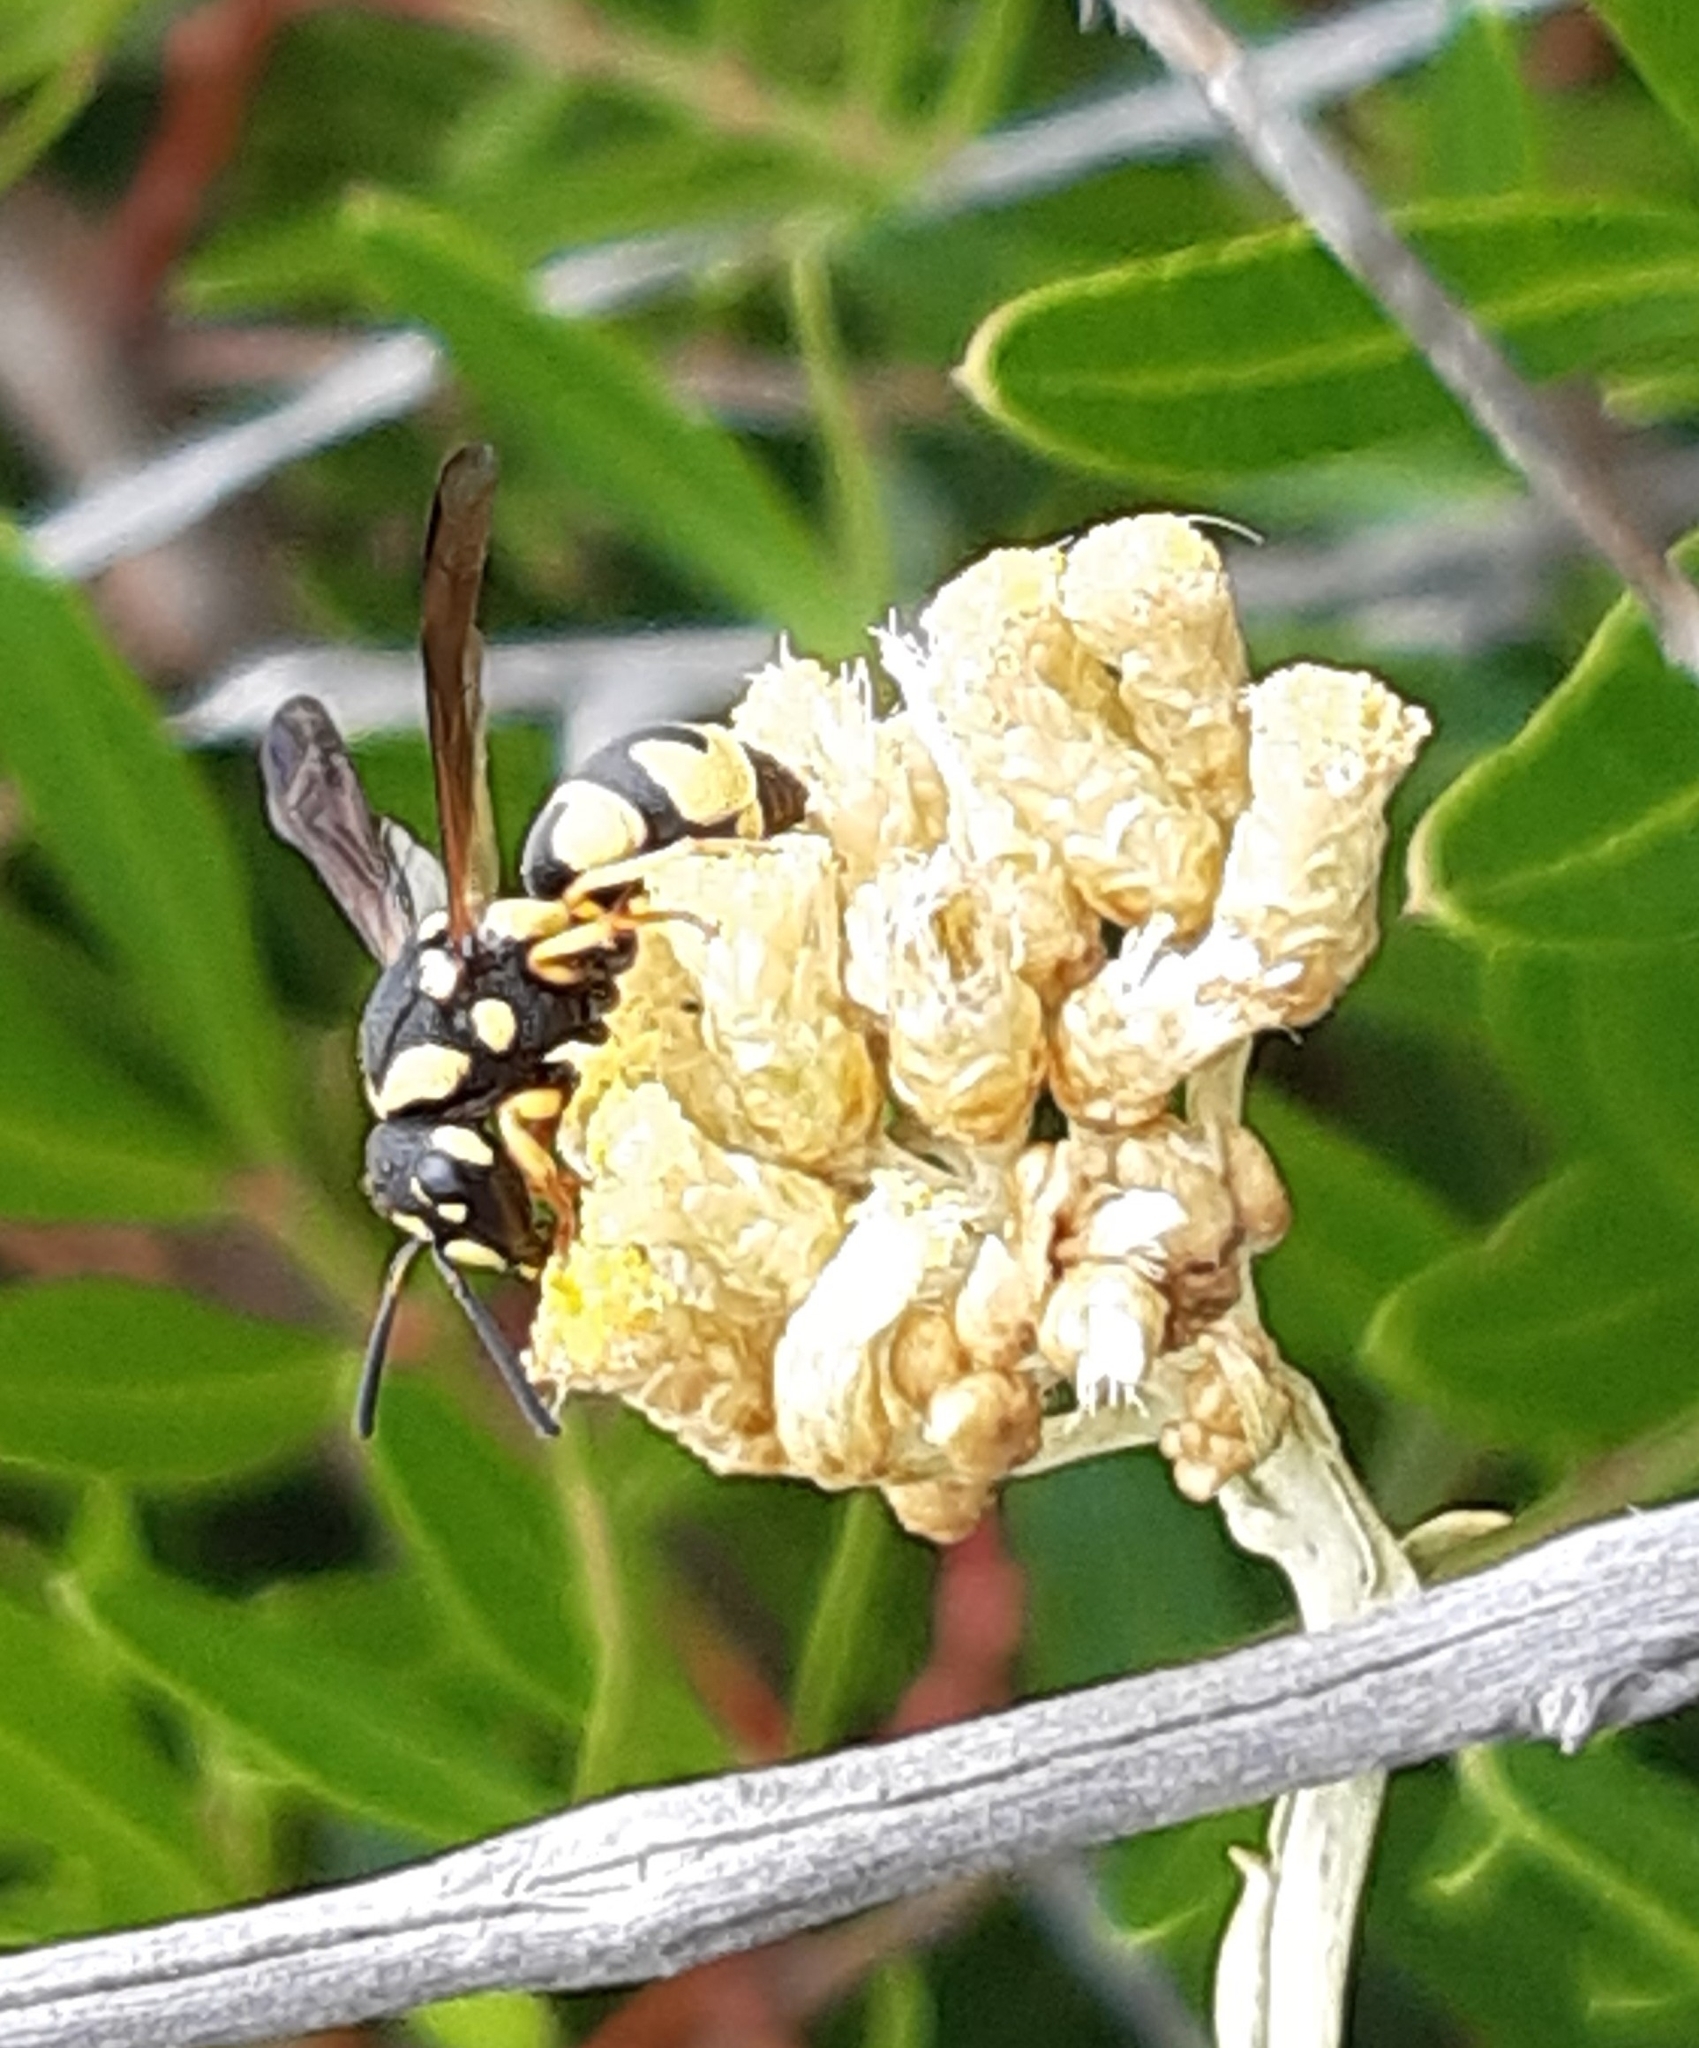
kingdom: Animalia
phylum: Arthropoda
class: Insecta
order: Hymenoptera
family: Eumenidae
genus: Parodontodynerus
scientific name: Parodontodynerus ephippium
